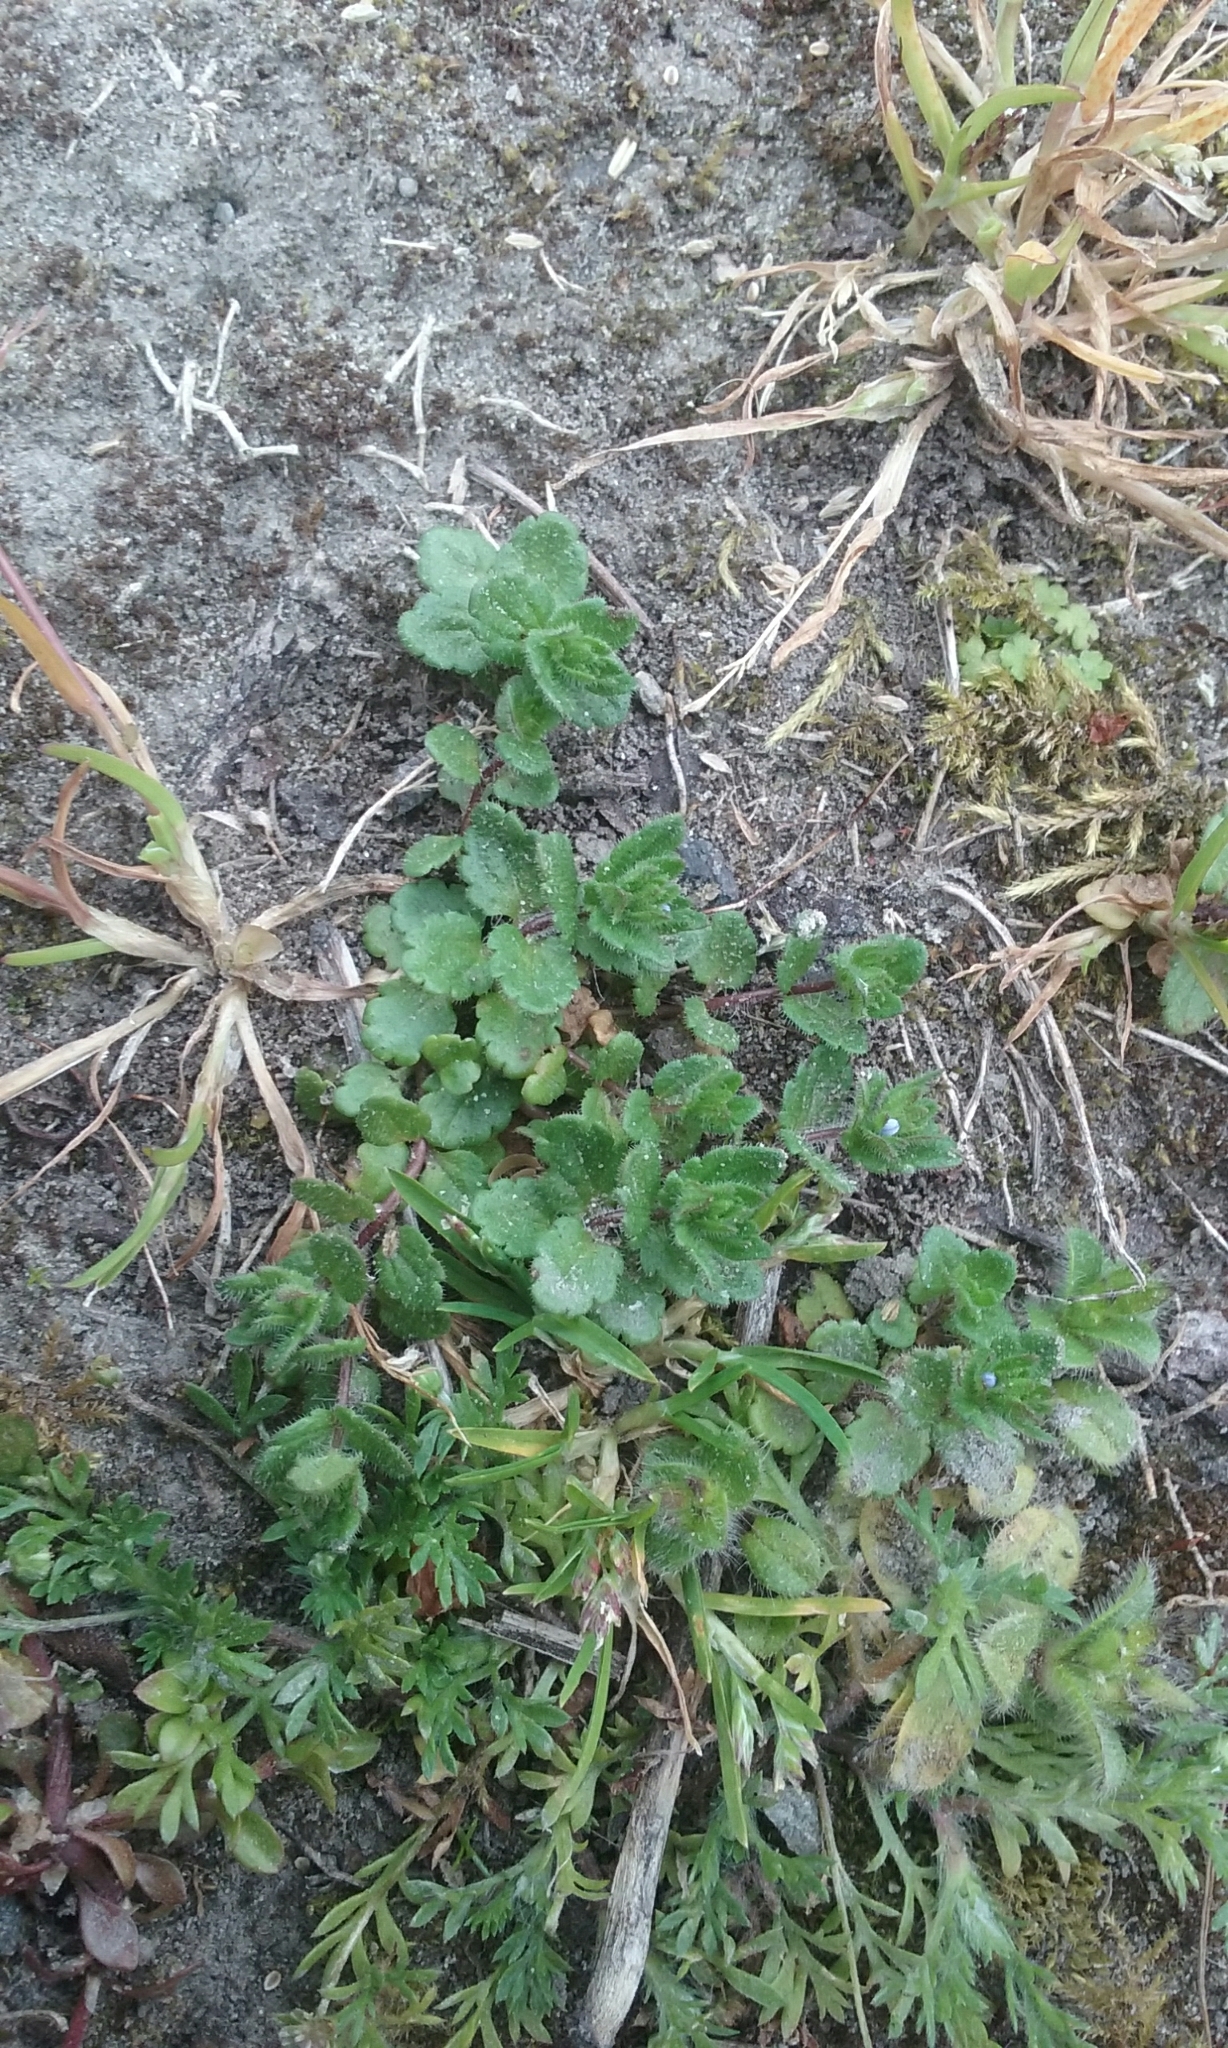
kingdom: Plantae
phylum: Tracheophyta
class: Magnoliopsida
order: Lamiales
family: Plantaginaceae
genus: Veronica
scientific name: Veronica persica
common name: Common field-speedwell
